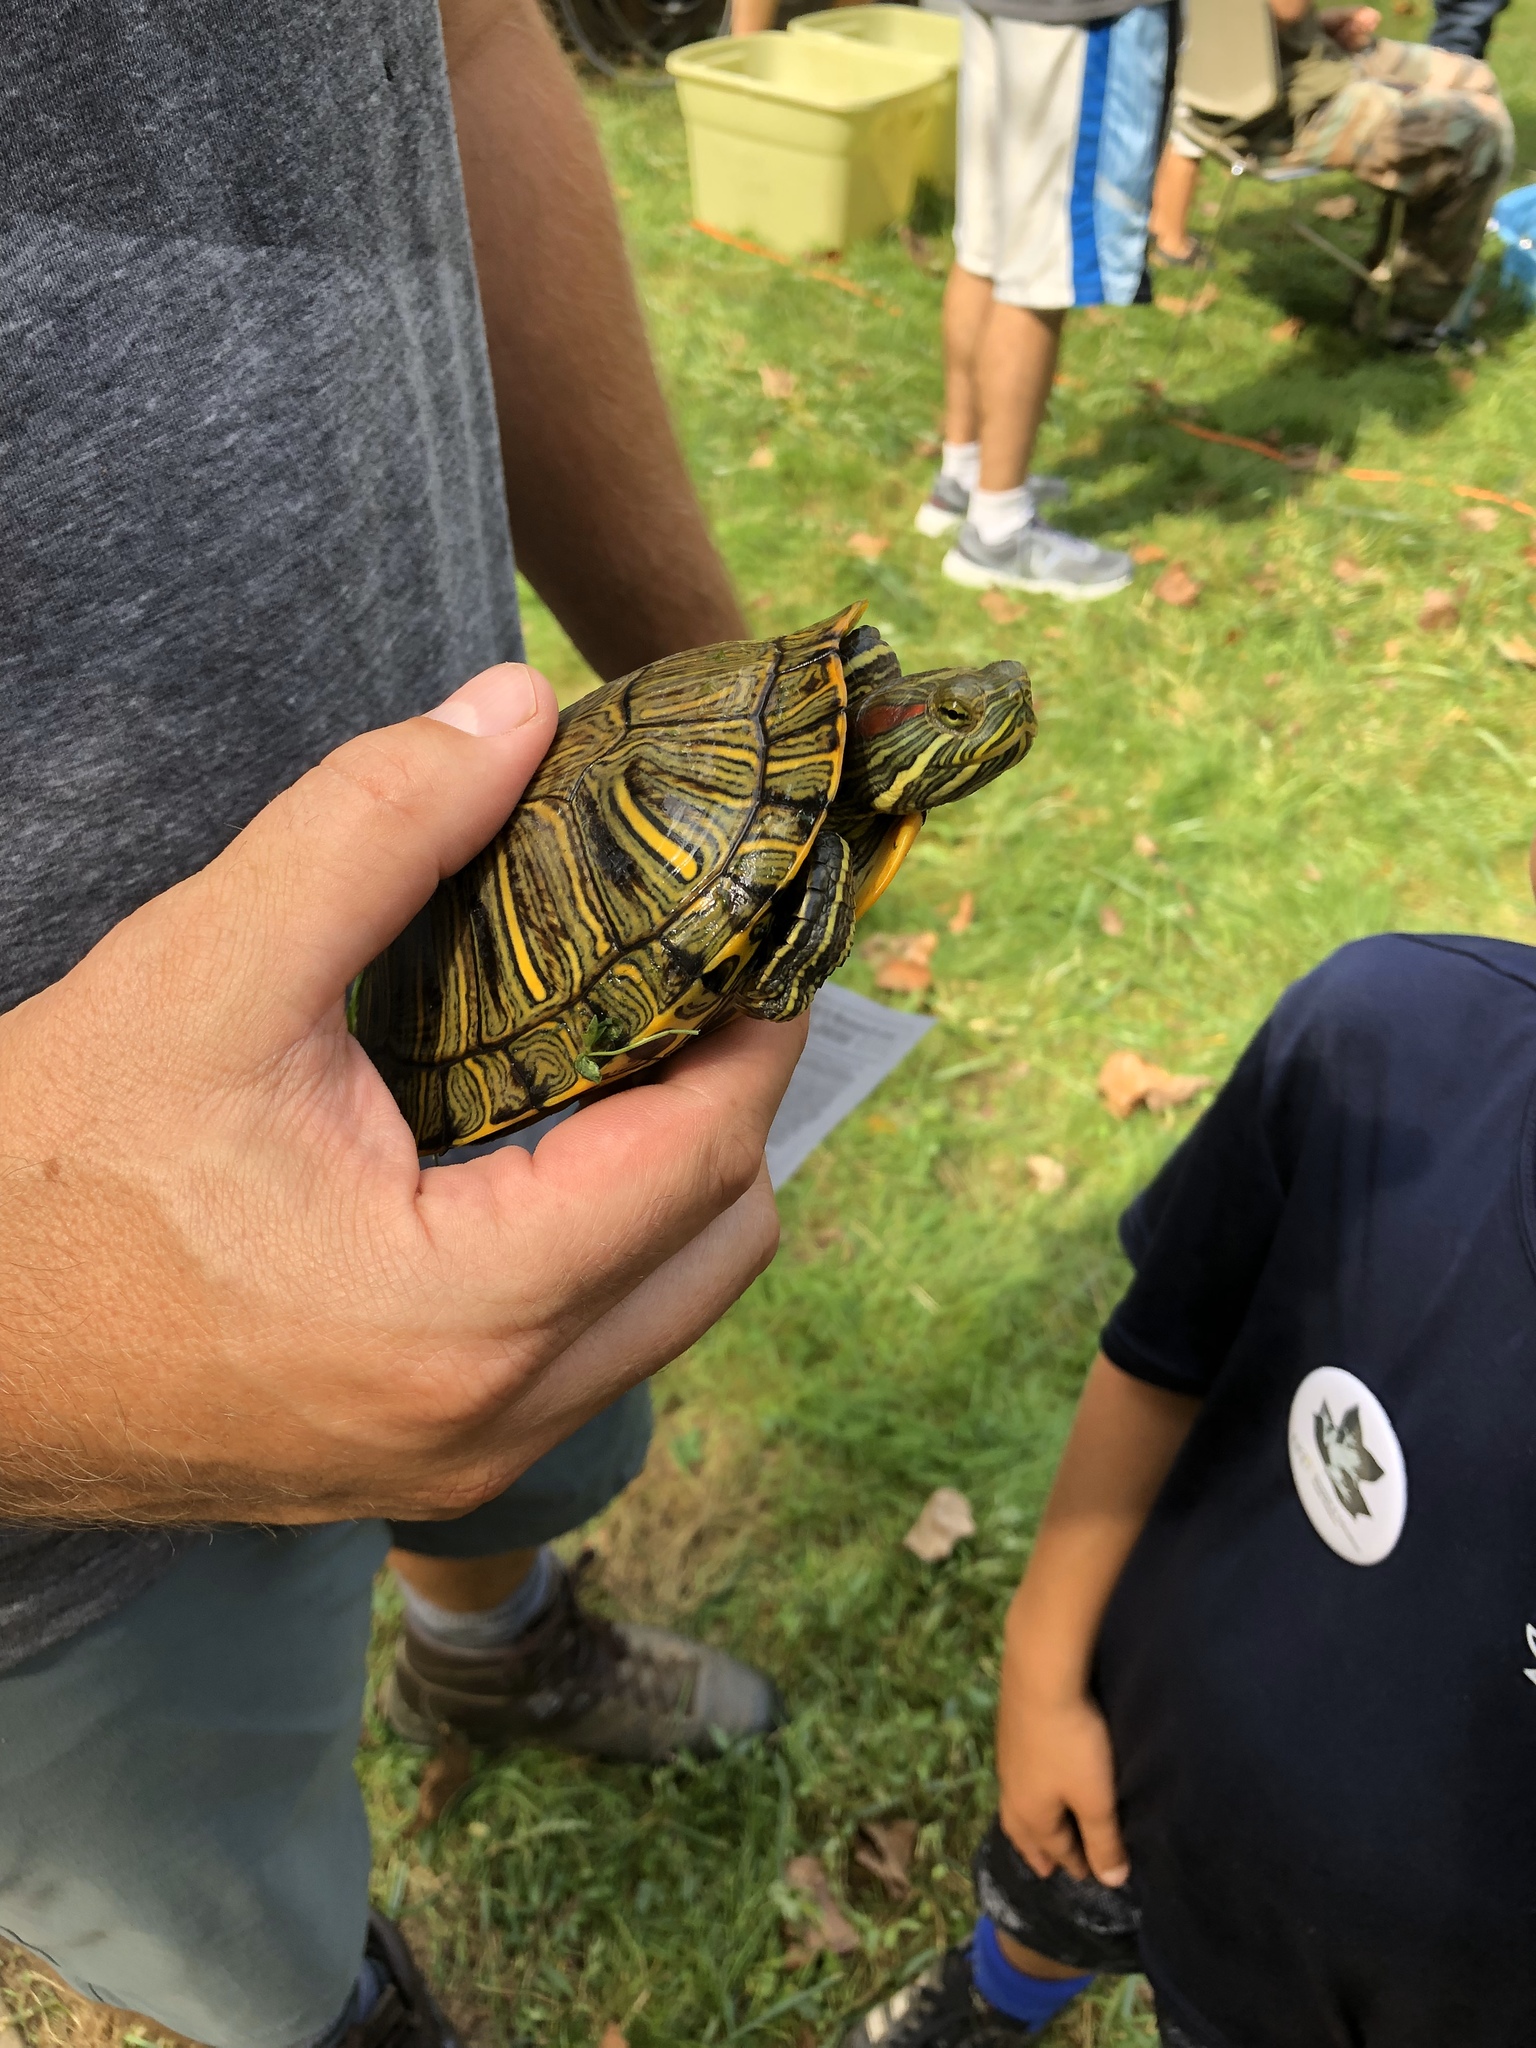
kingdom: Animalia
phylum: Chordata
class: Testudines
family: Emydidae
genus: Trachemys
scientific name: Trachemys scripta
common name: Slider
